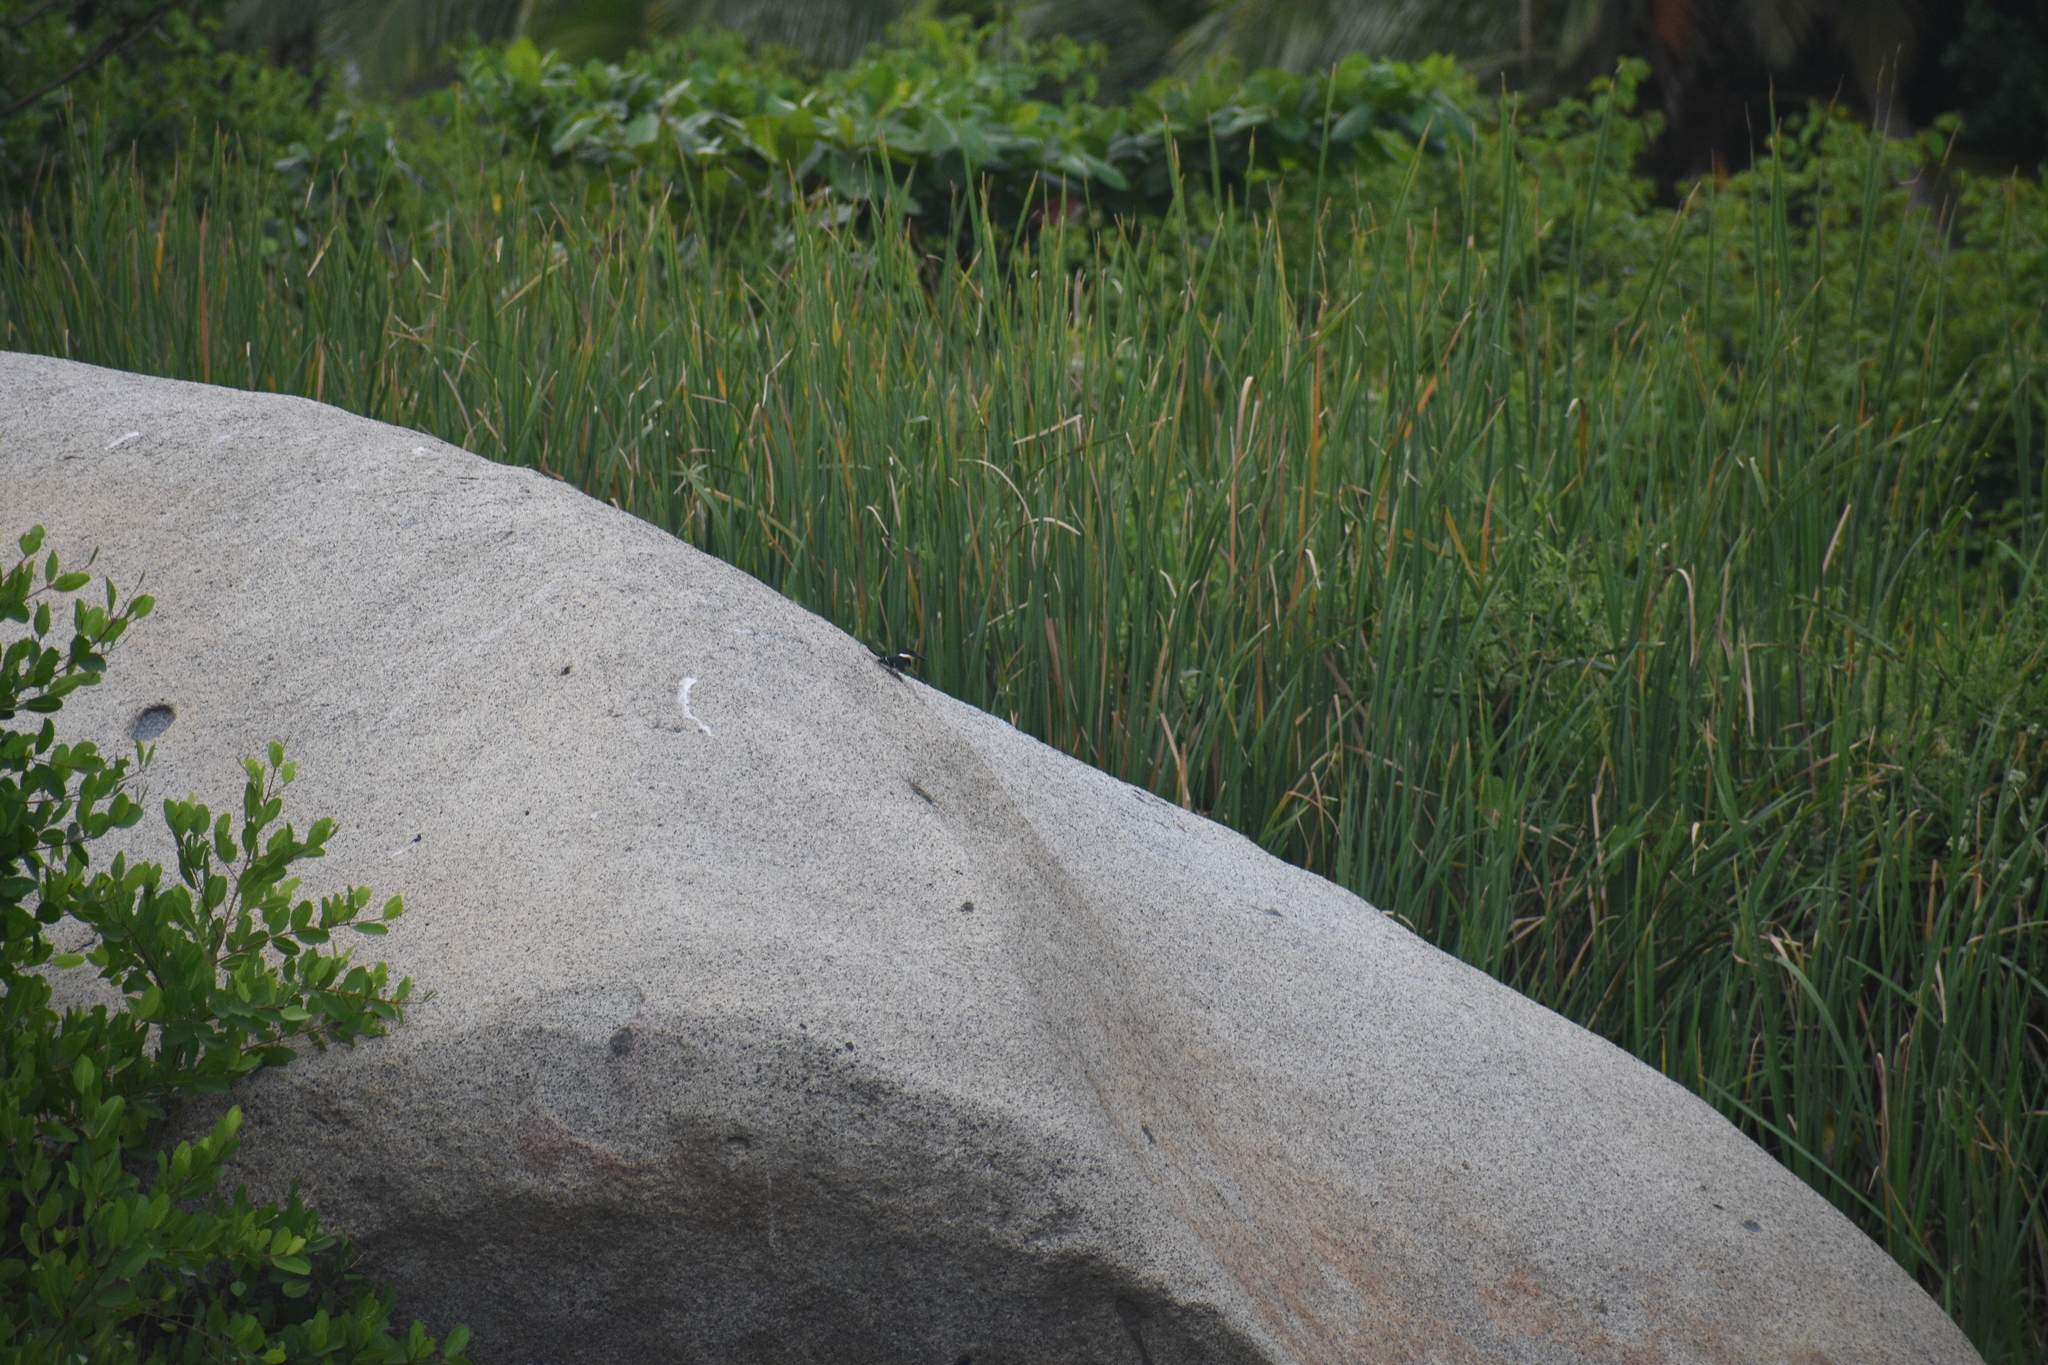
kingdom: Animalia
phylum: Chordata
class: Aves
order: Coraciiformes
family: Alcedinidae
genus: Chloroceryle
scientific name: Chloroceryle americana
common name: Green kingfisher
